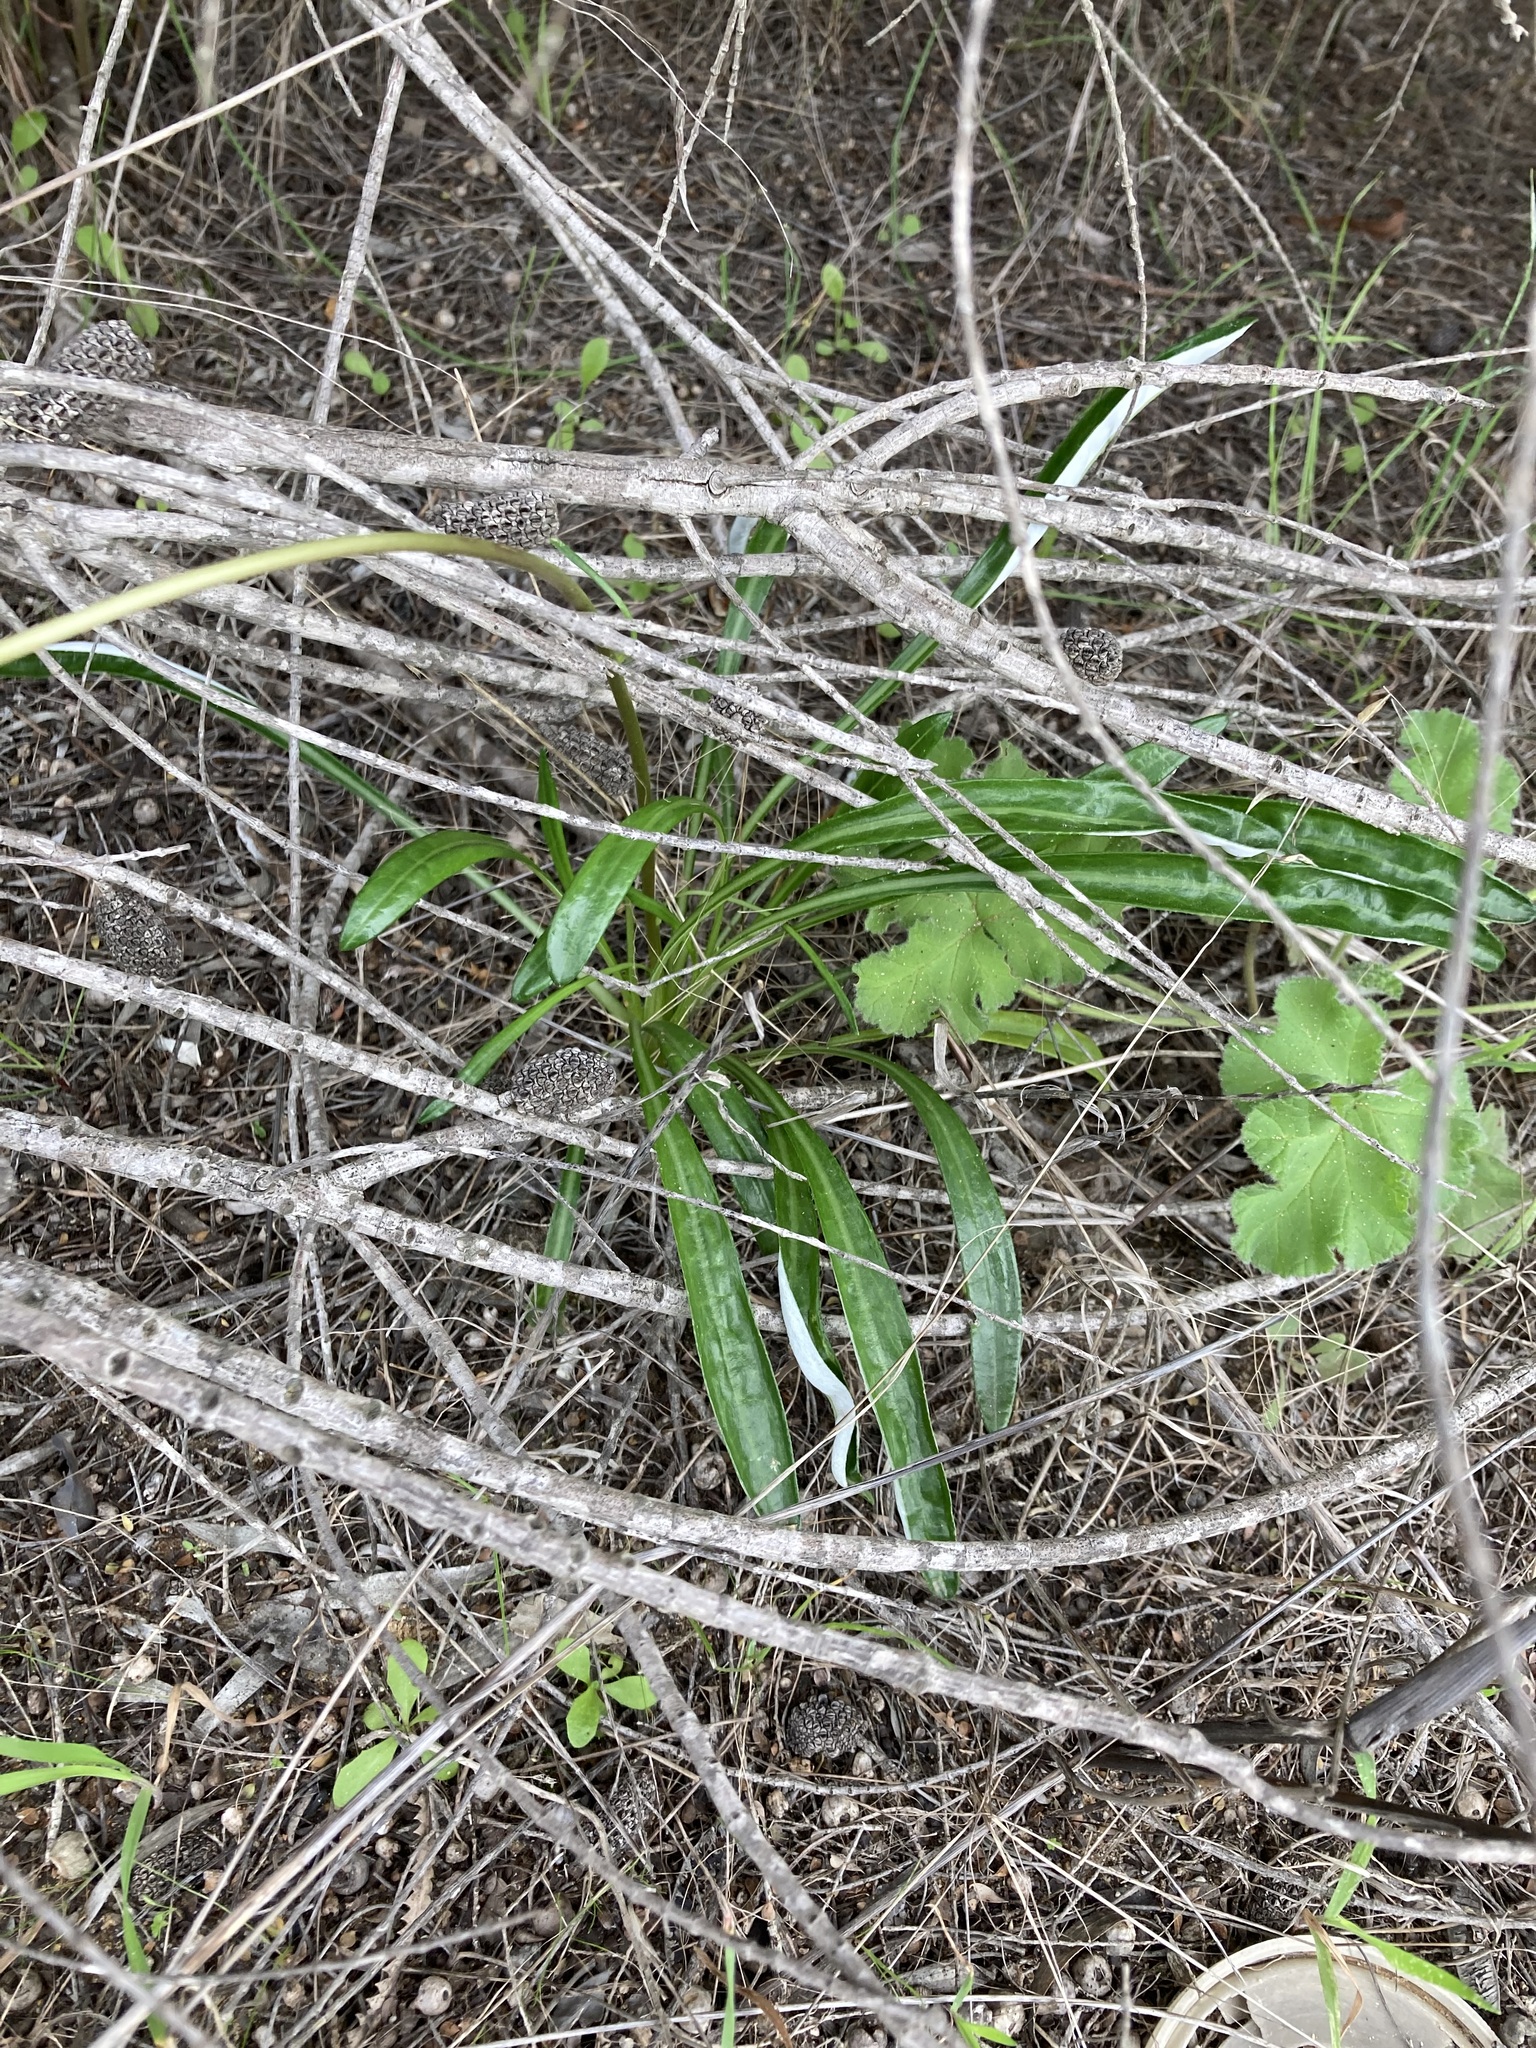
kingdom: Plantae
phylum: Tracheophyta
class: Magnoliopsida
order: Asterales
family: Asteraceae
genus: Gazania
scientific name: Gazania splendens
